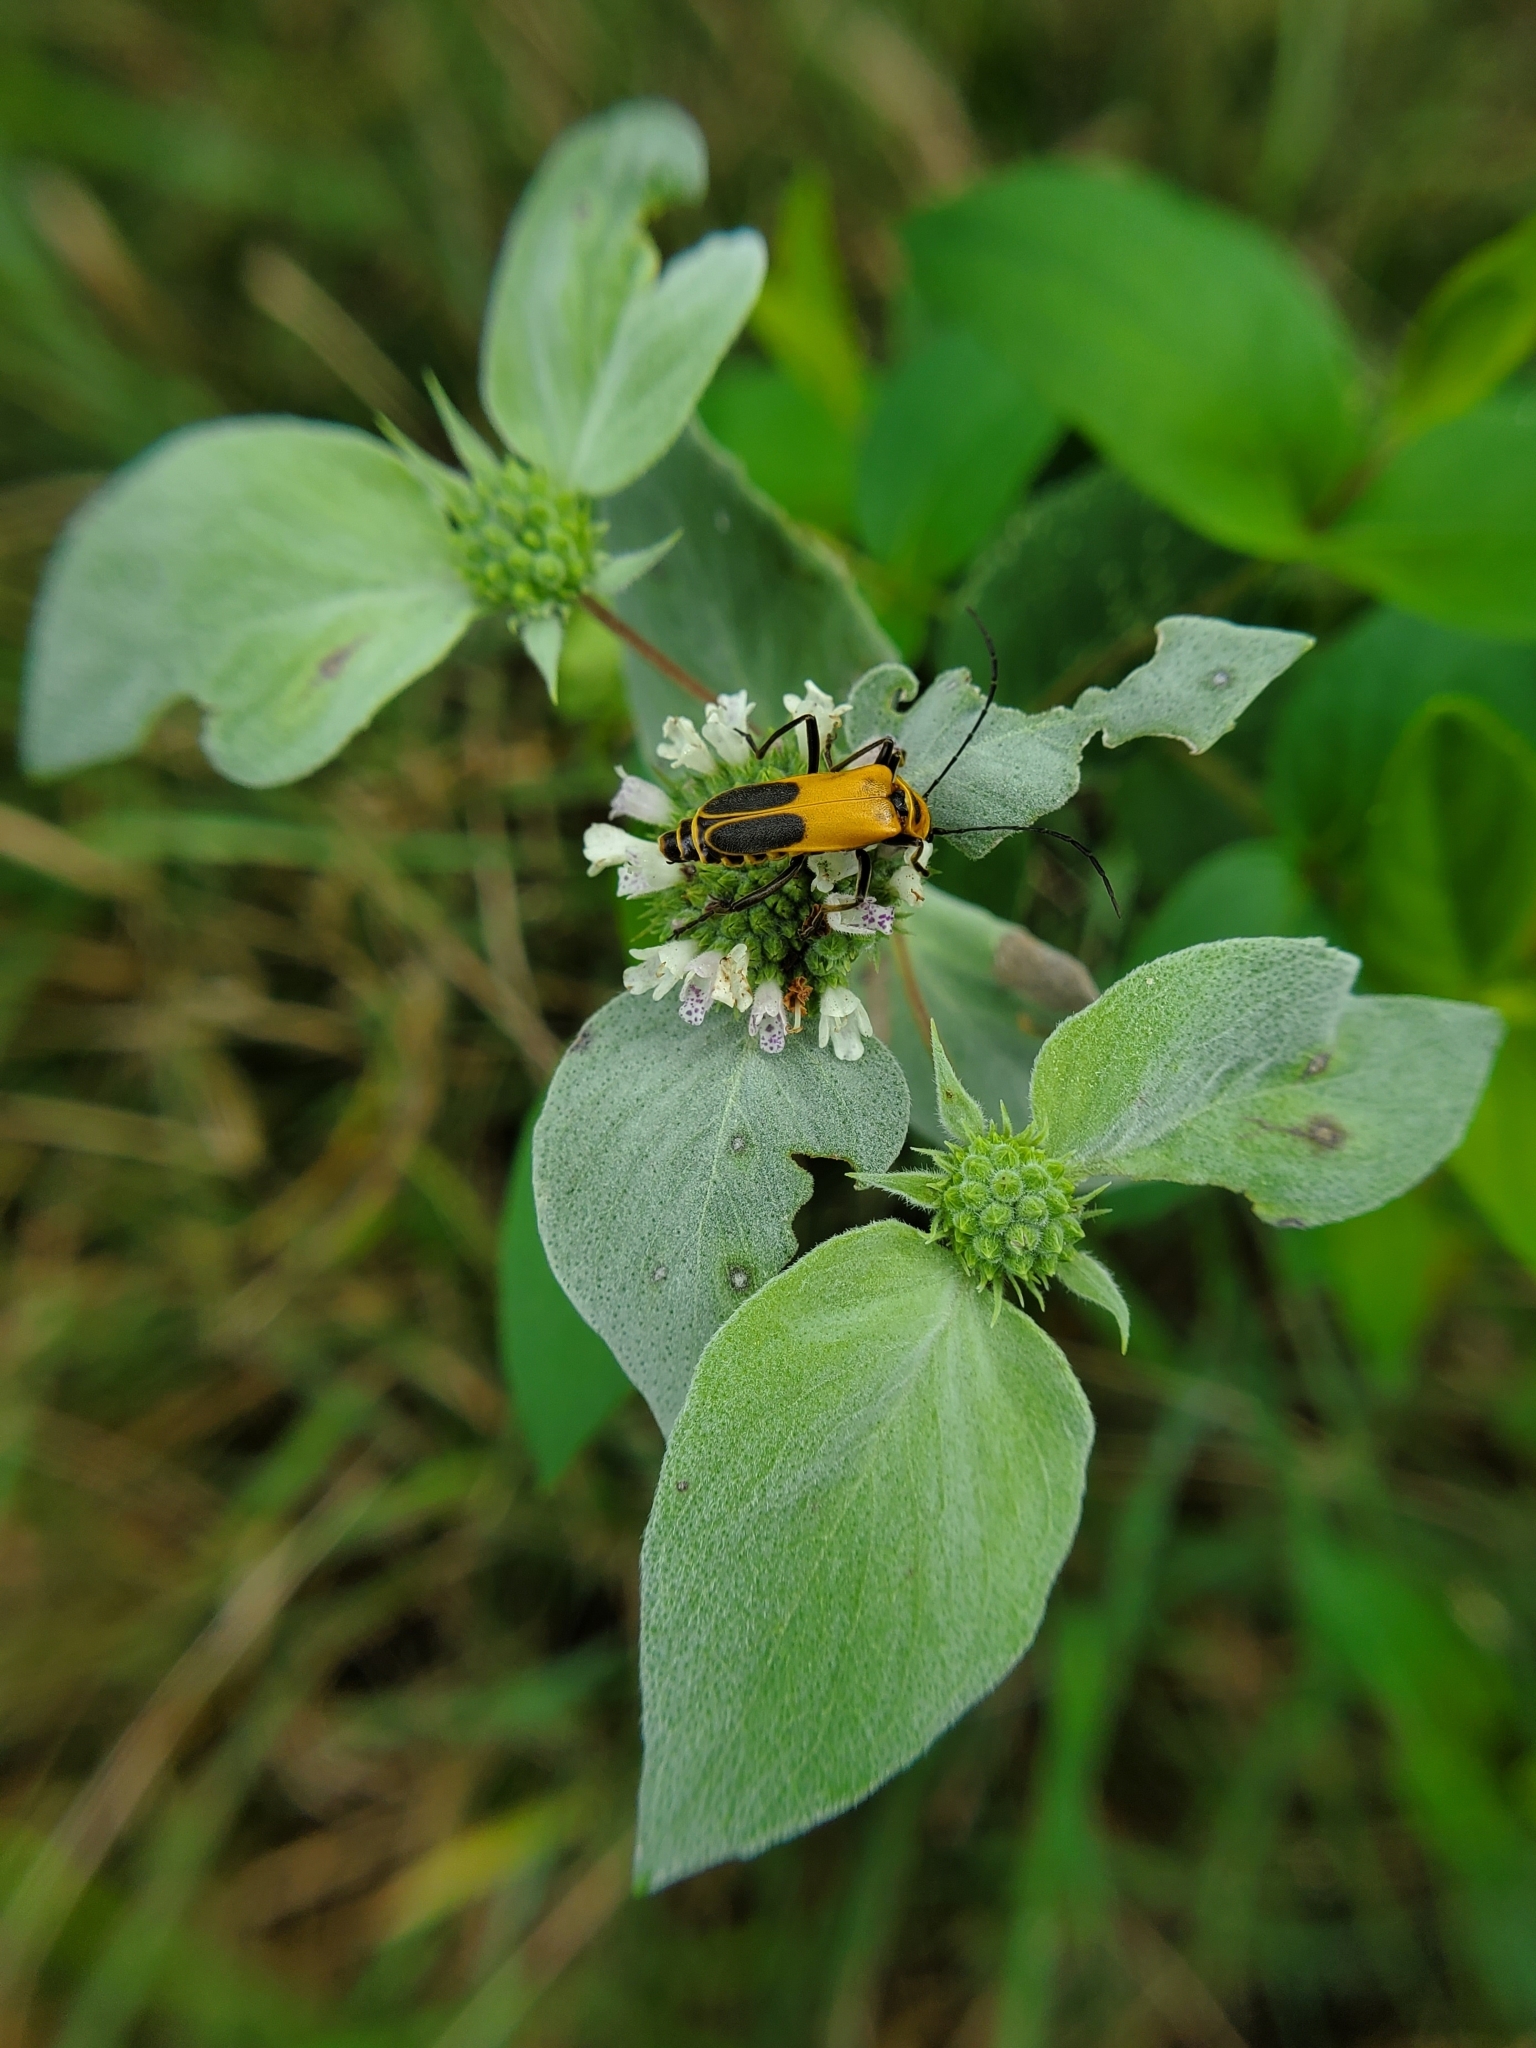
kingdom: Animalia
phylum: Arthropoda
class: Insecta
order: Coleoptera
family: Cantharidae
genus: Chauliognathus
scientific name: Chauliognathus pensylvanicus
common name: Goldenrod soldier beetle
